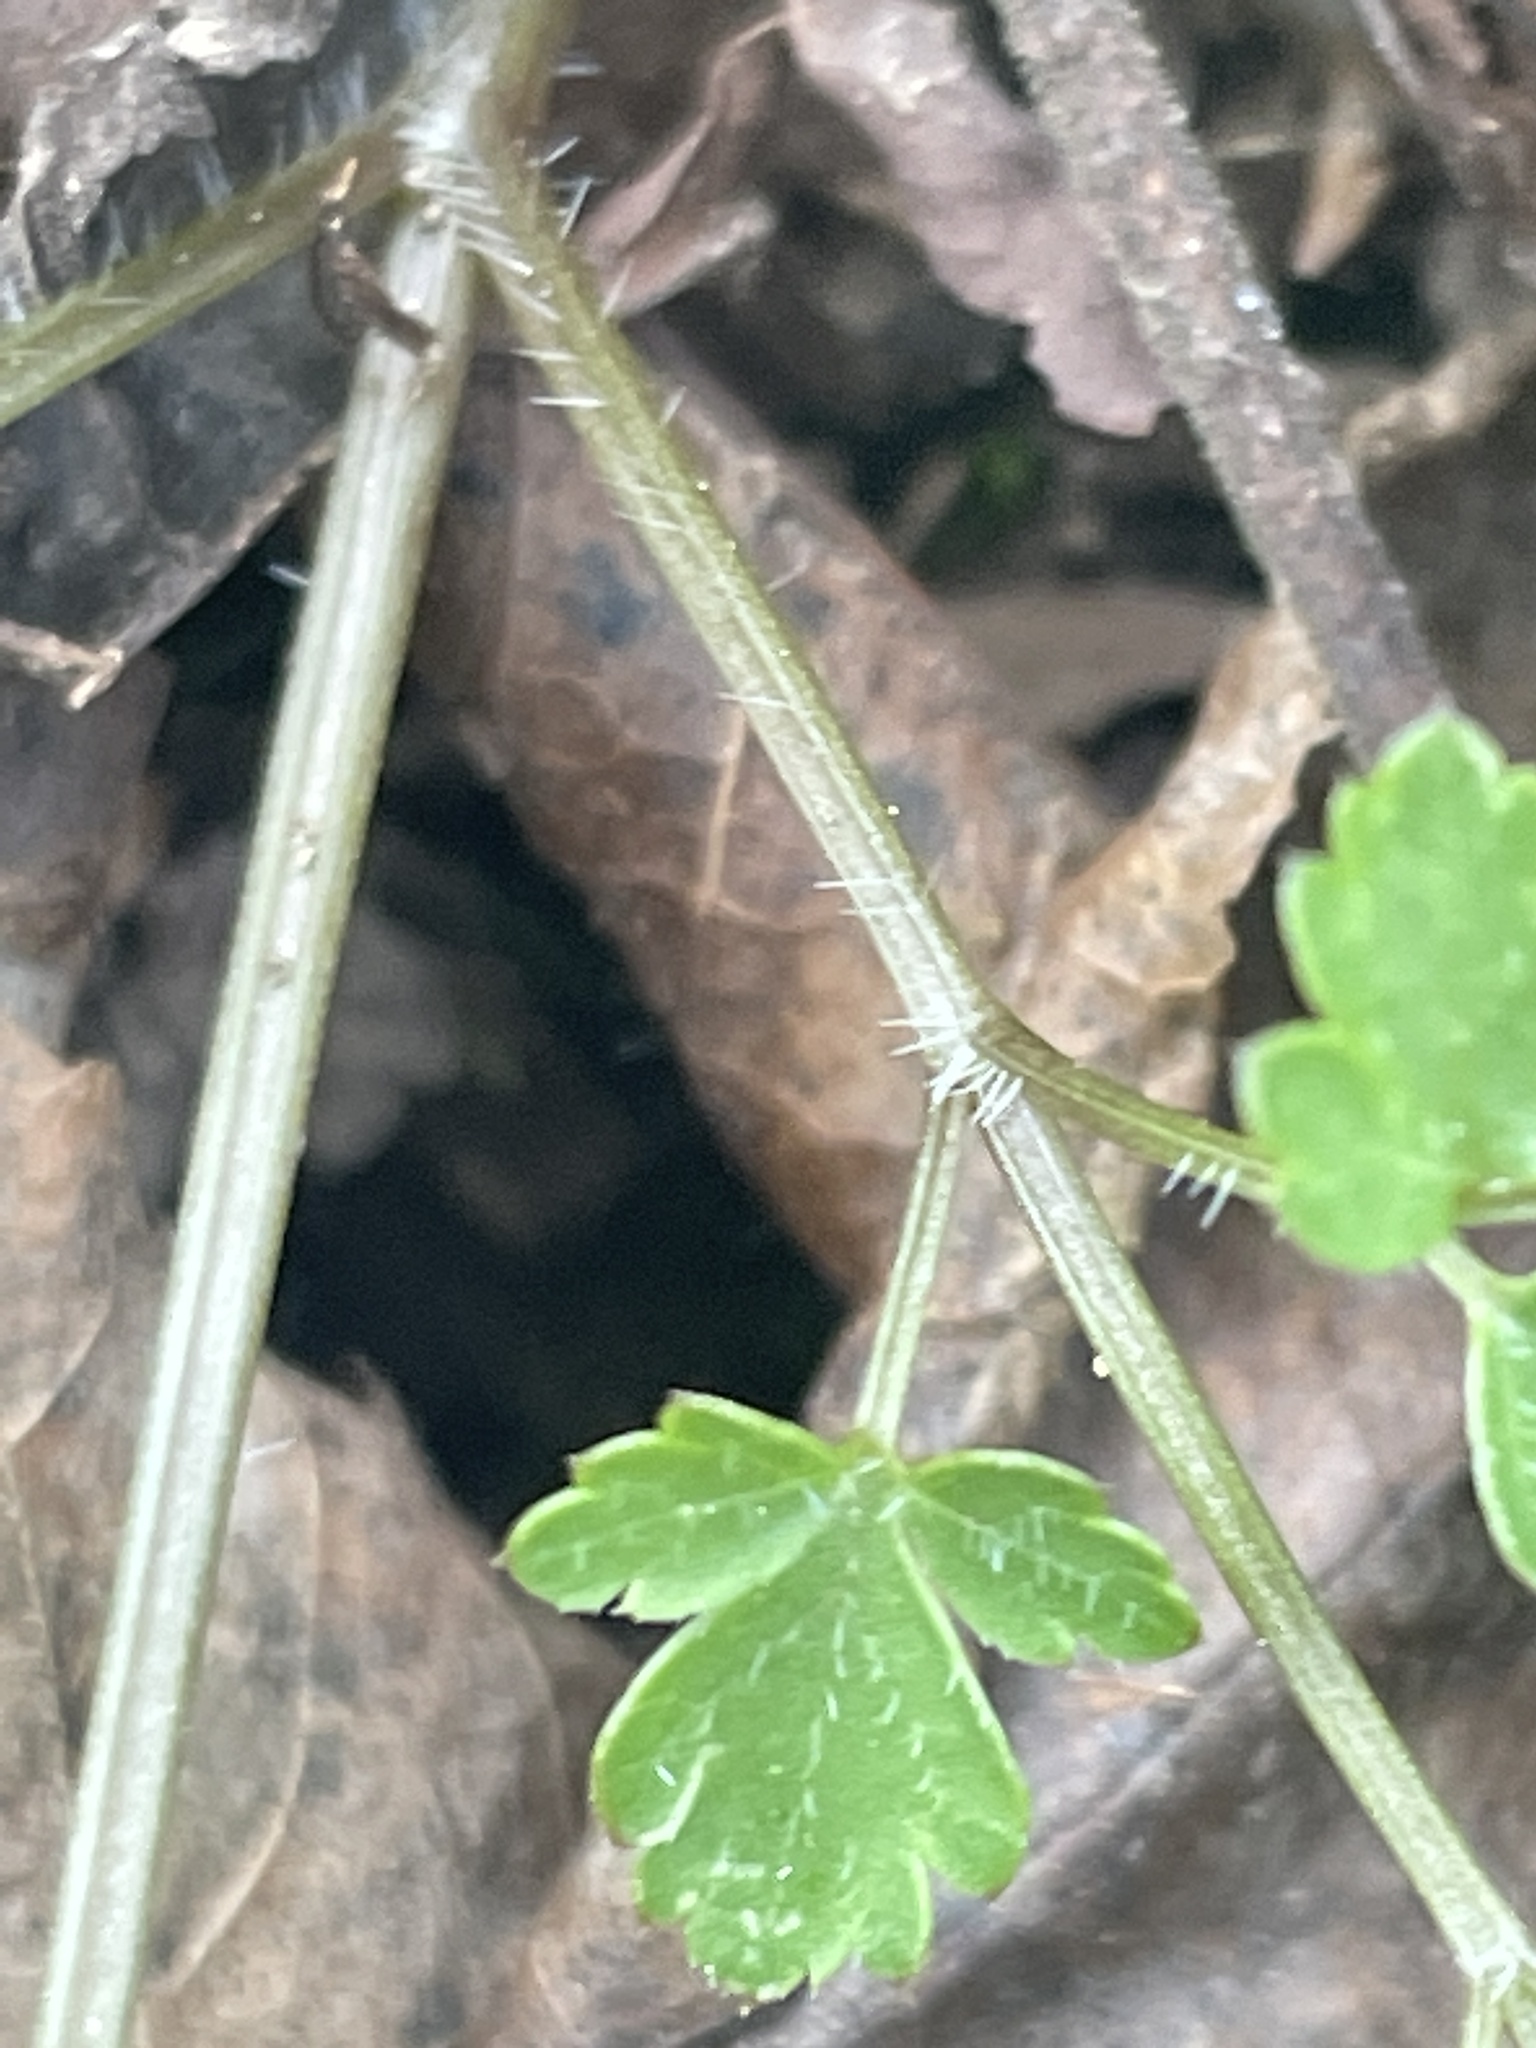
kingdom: Plantae
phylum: Tracheophyta
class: Magnoliopsida
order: Apiales
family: Apiaceae
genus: Chaerophyllum
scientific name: Chaerophyllum procumbens
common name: Spreading chervil
